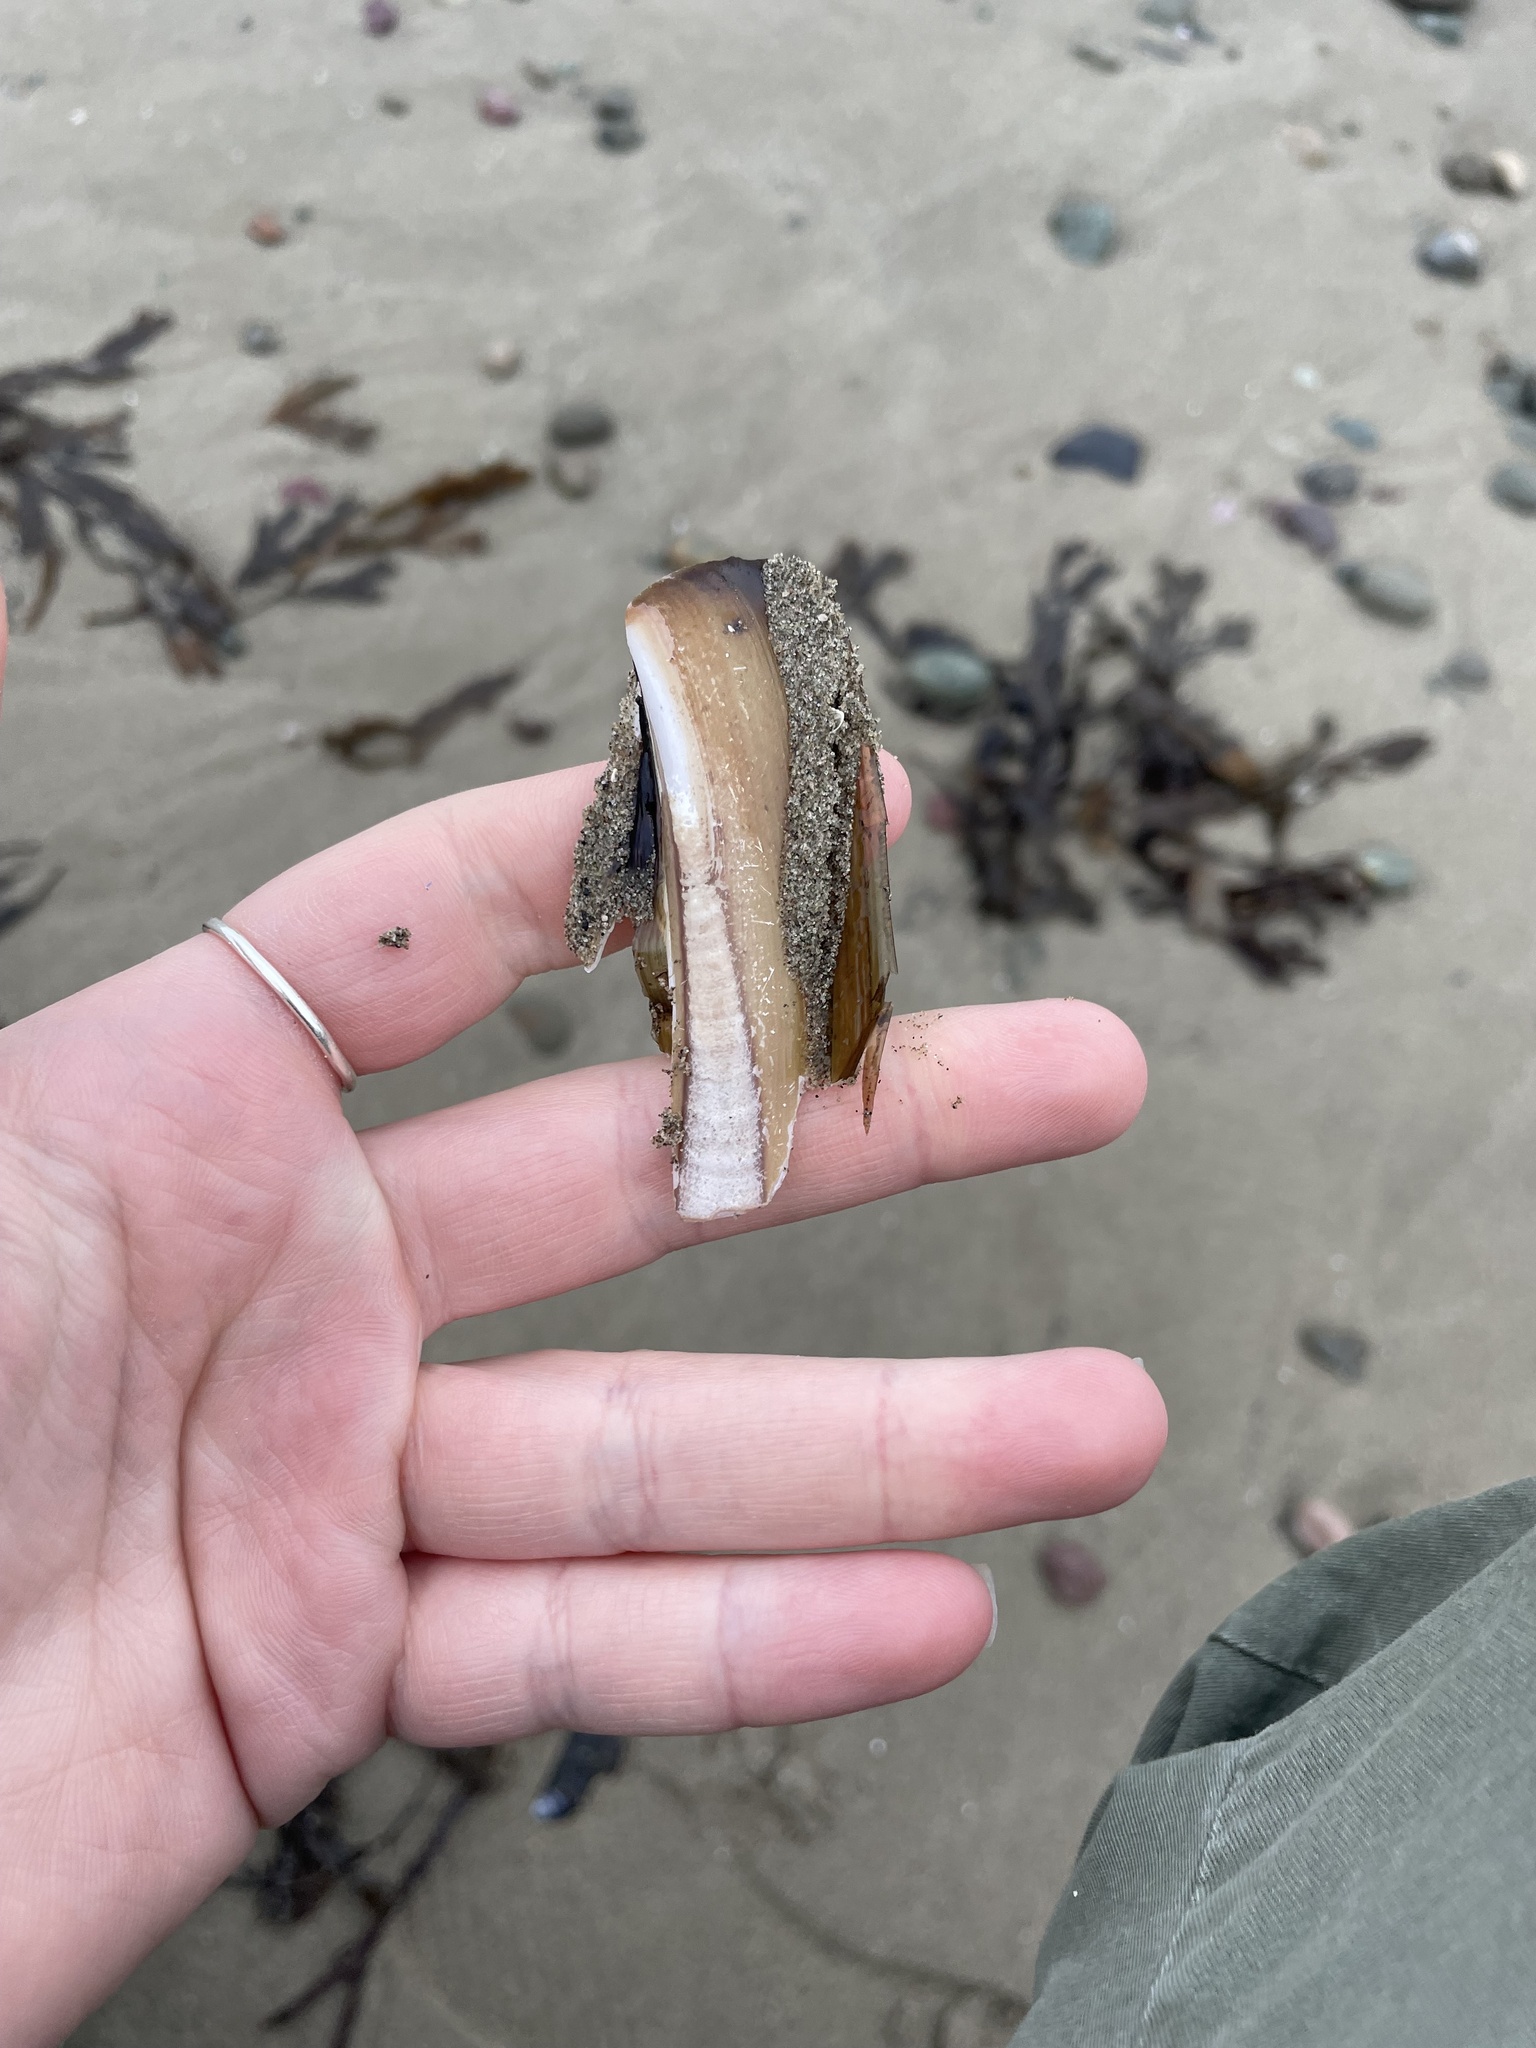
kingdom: Animalia
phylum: Mollusca
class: Bivalvia
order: Adapedonta
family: Pharidae
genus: Ensis
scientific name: Ensis leei
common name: American jack knife clam
